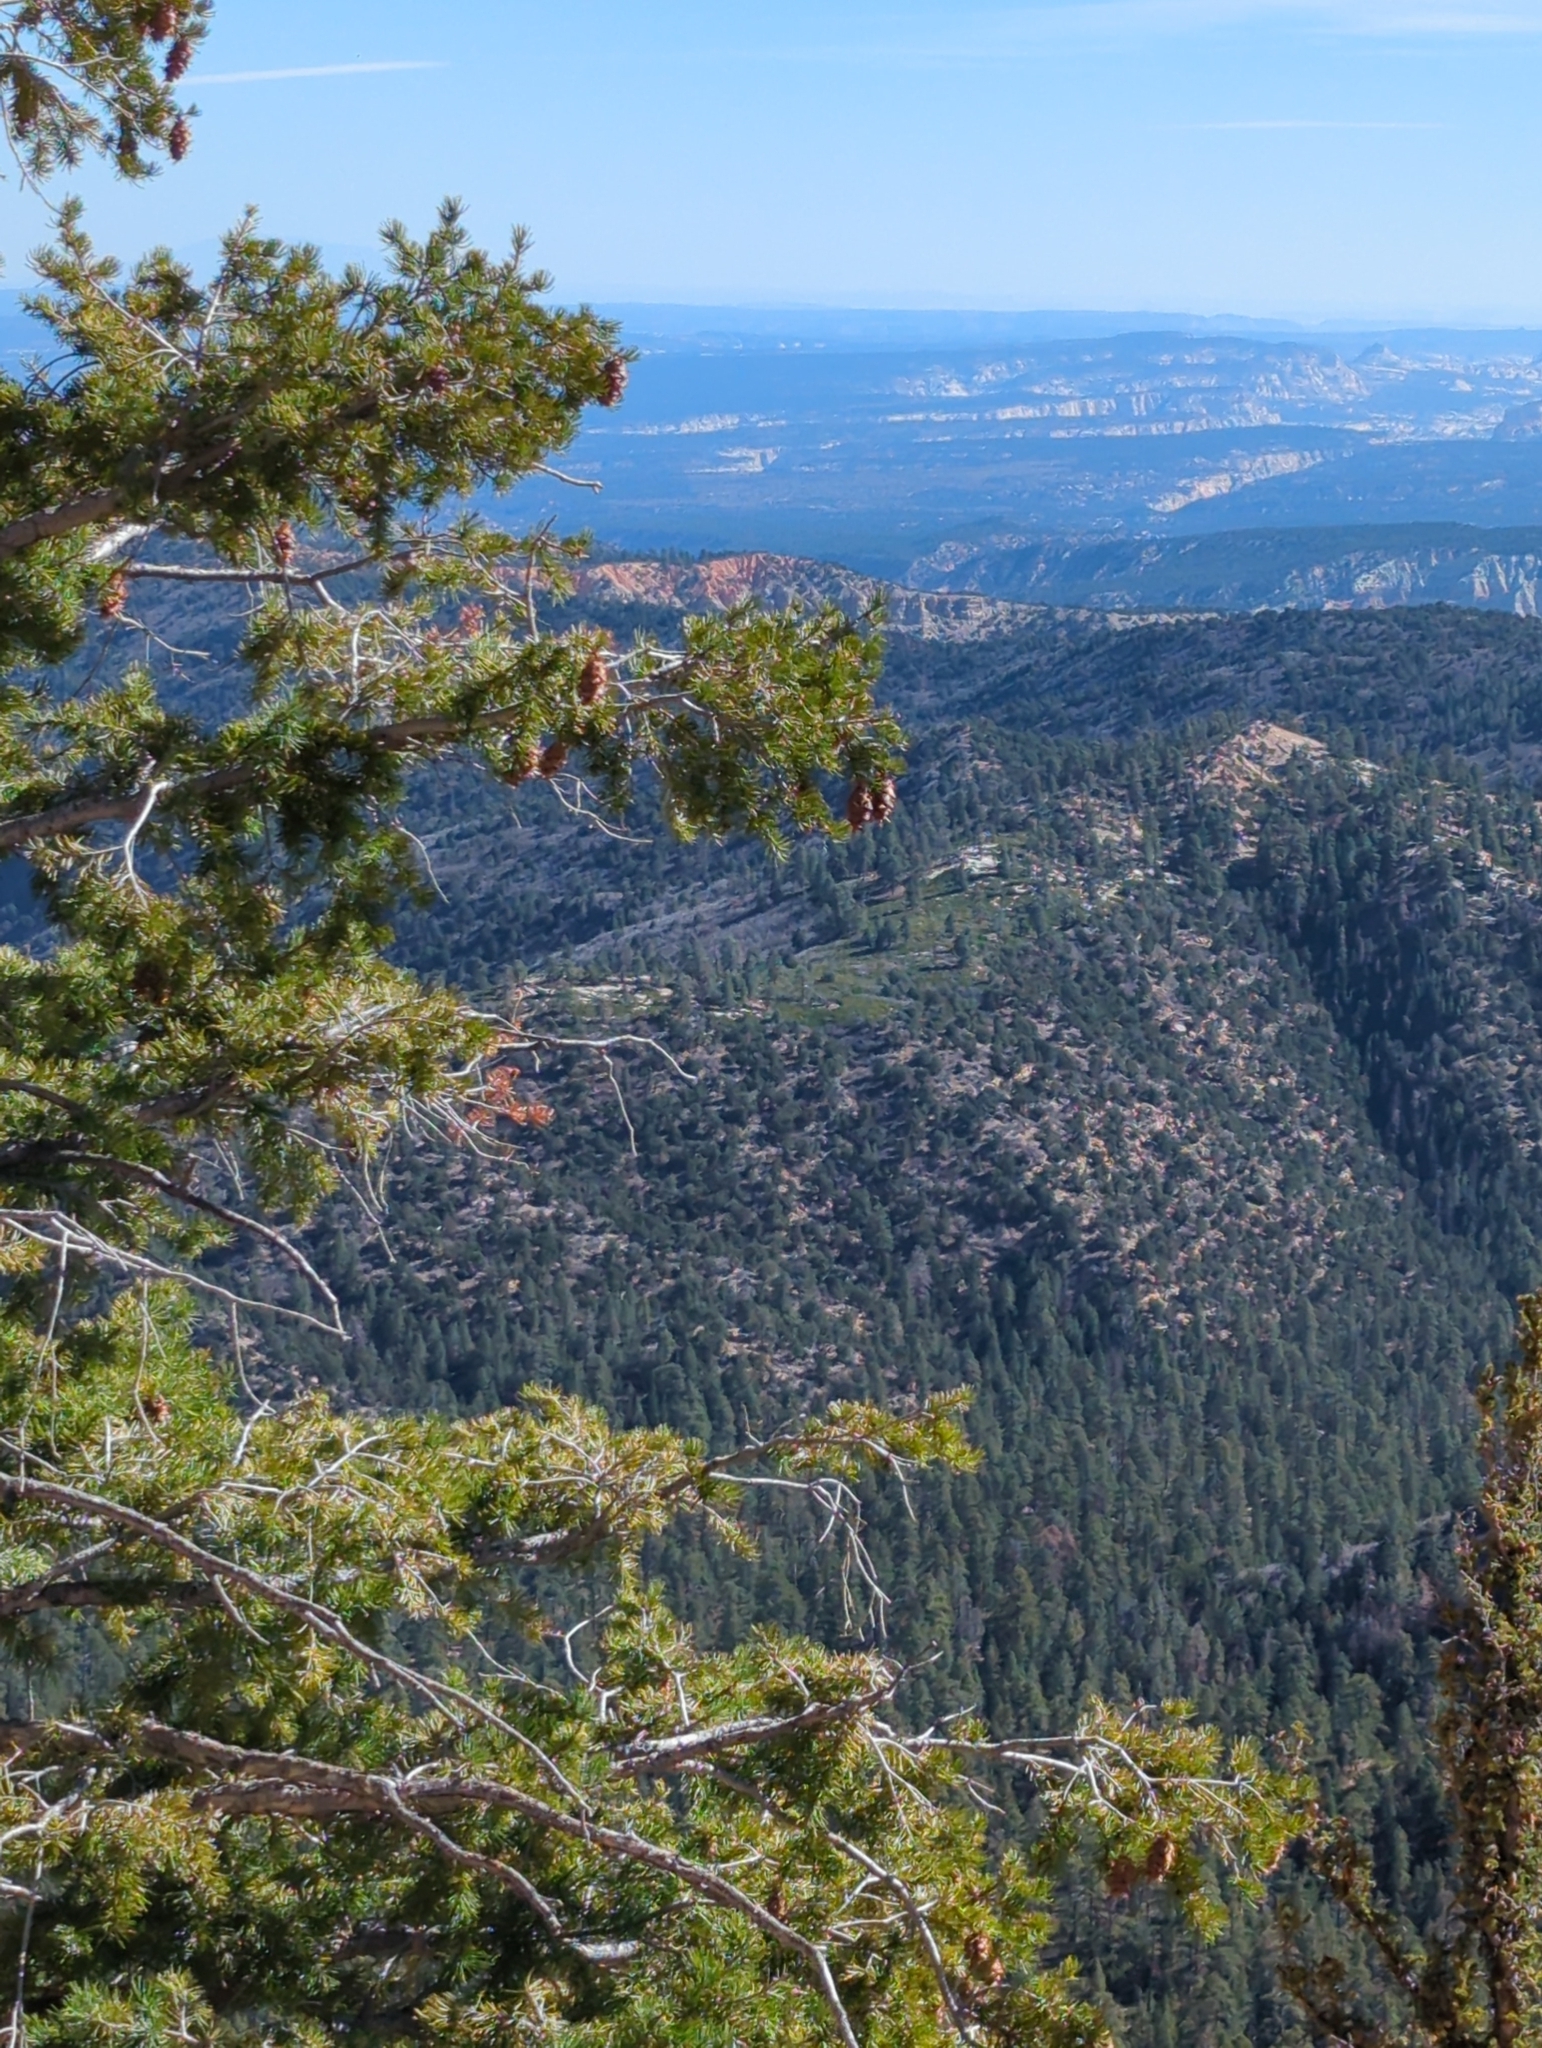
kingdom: Plantae
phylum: Tracheophyta
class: Pinopsida
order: Pinales
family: Pinaceae
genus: Pseudotsuga
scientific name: Pseudotsuga menziesii
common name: Douglas fir
